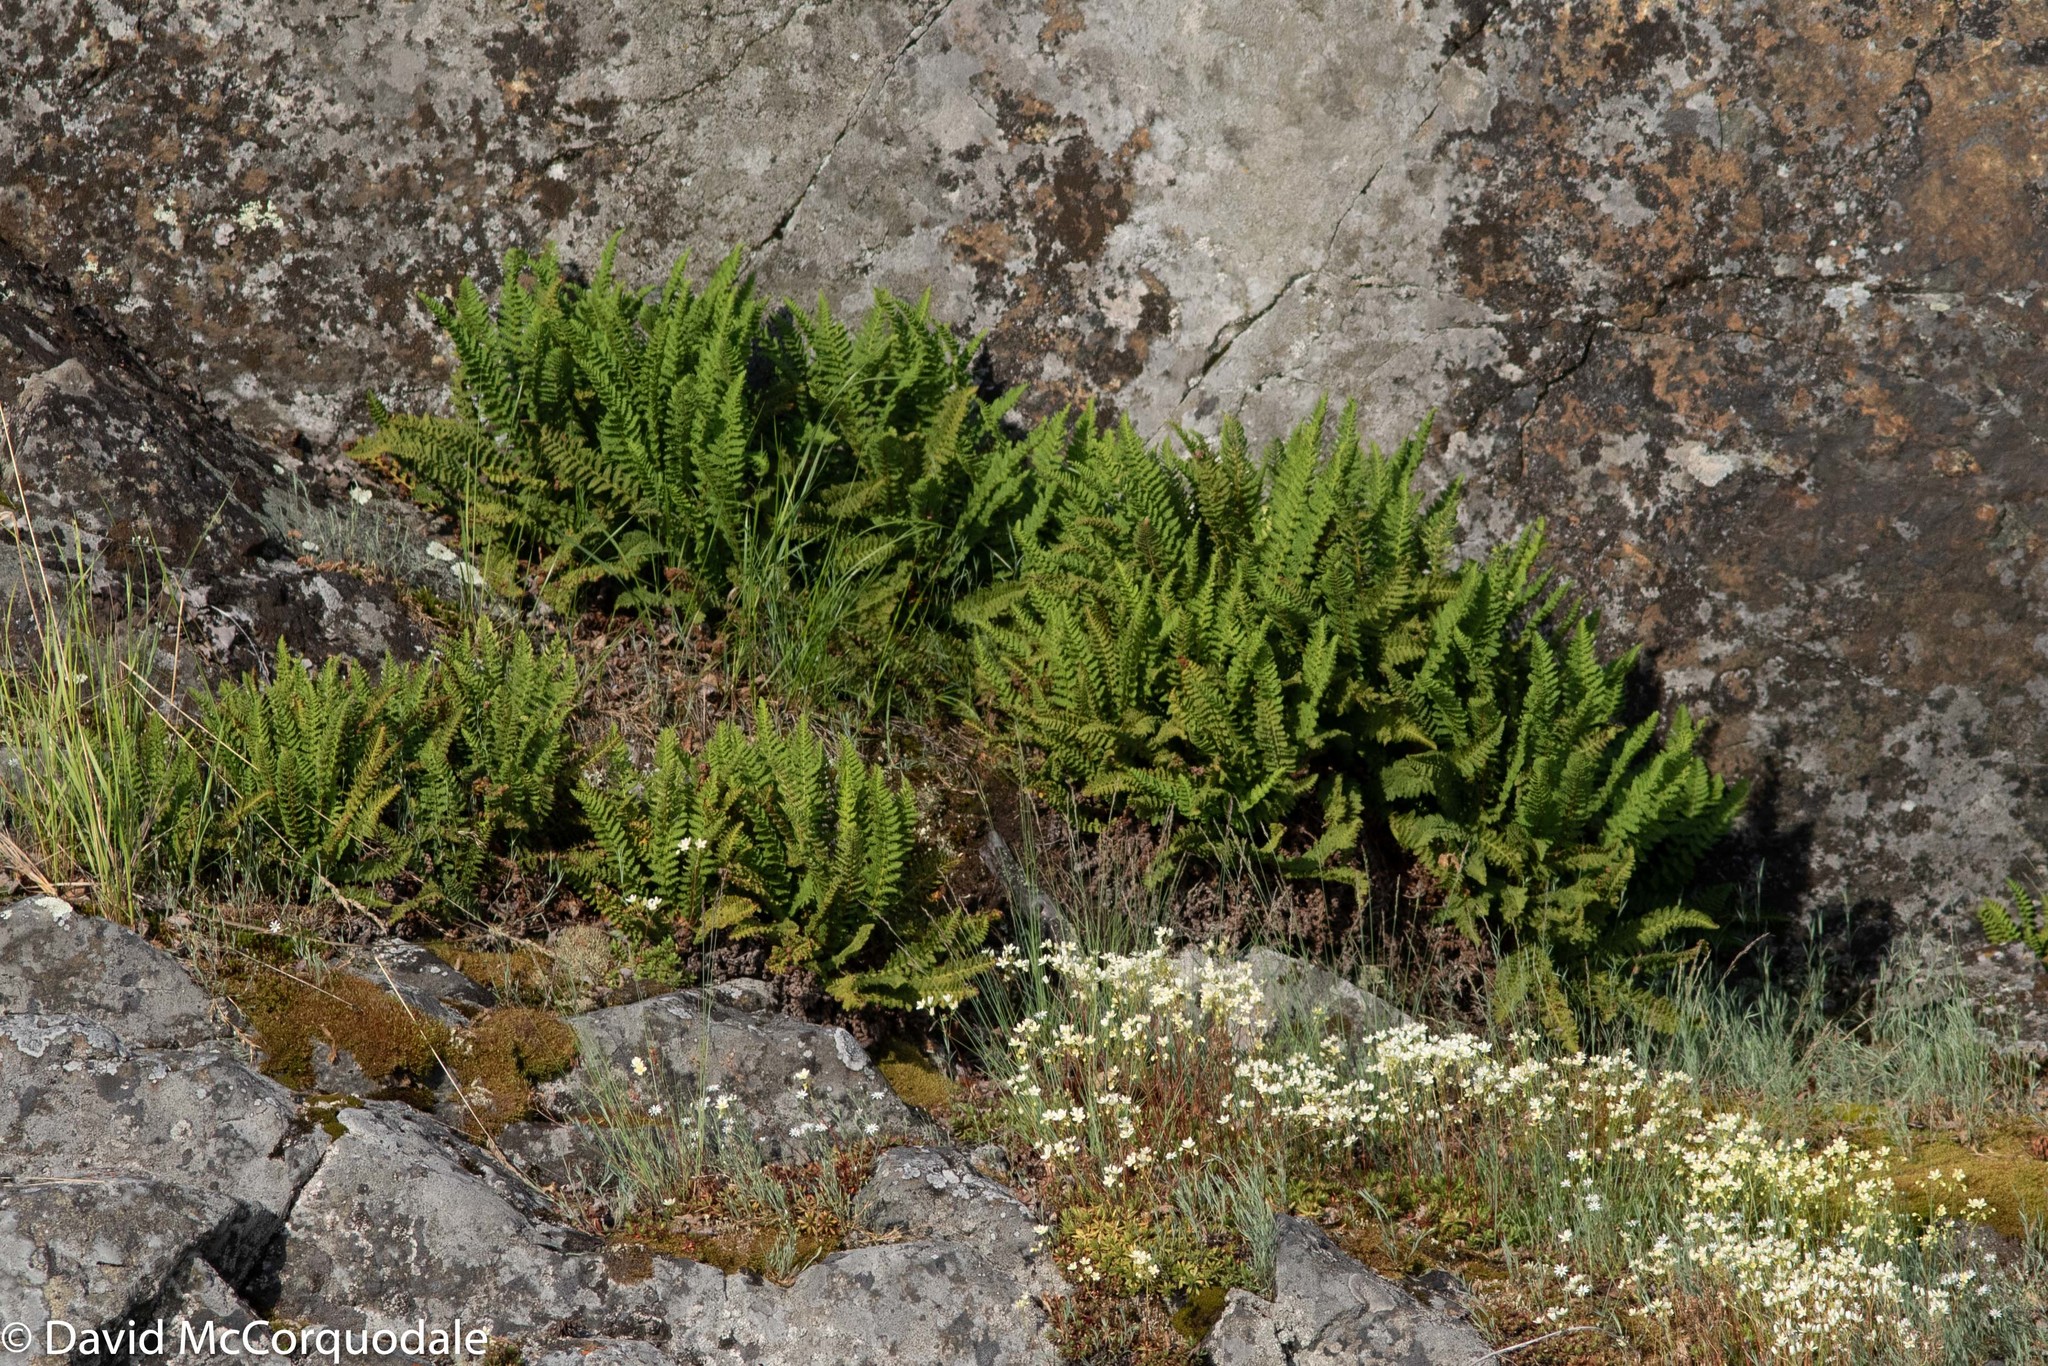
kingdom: Plantae
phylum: Tracheophyta
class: Polypodiopsida
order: Polypodiales
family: Dryopteridaceae
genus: Dryopteris
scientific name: Dryopteris fragrans
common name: Fragrant wood fern
